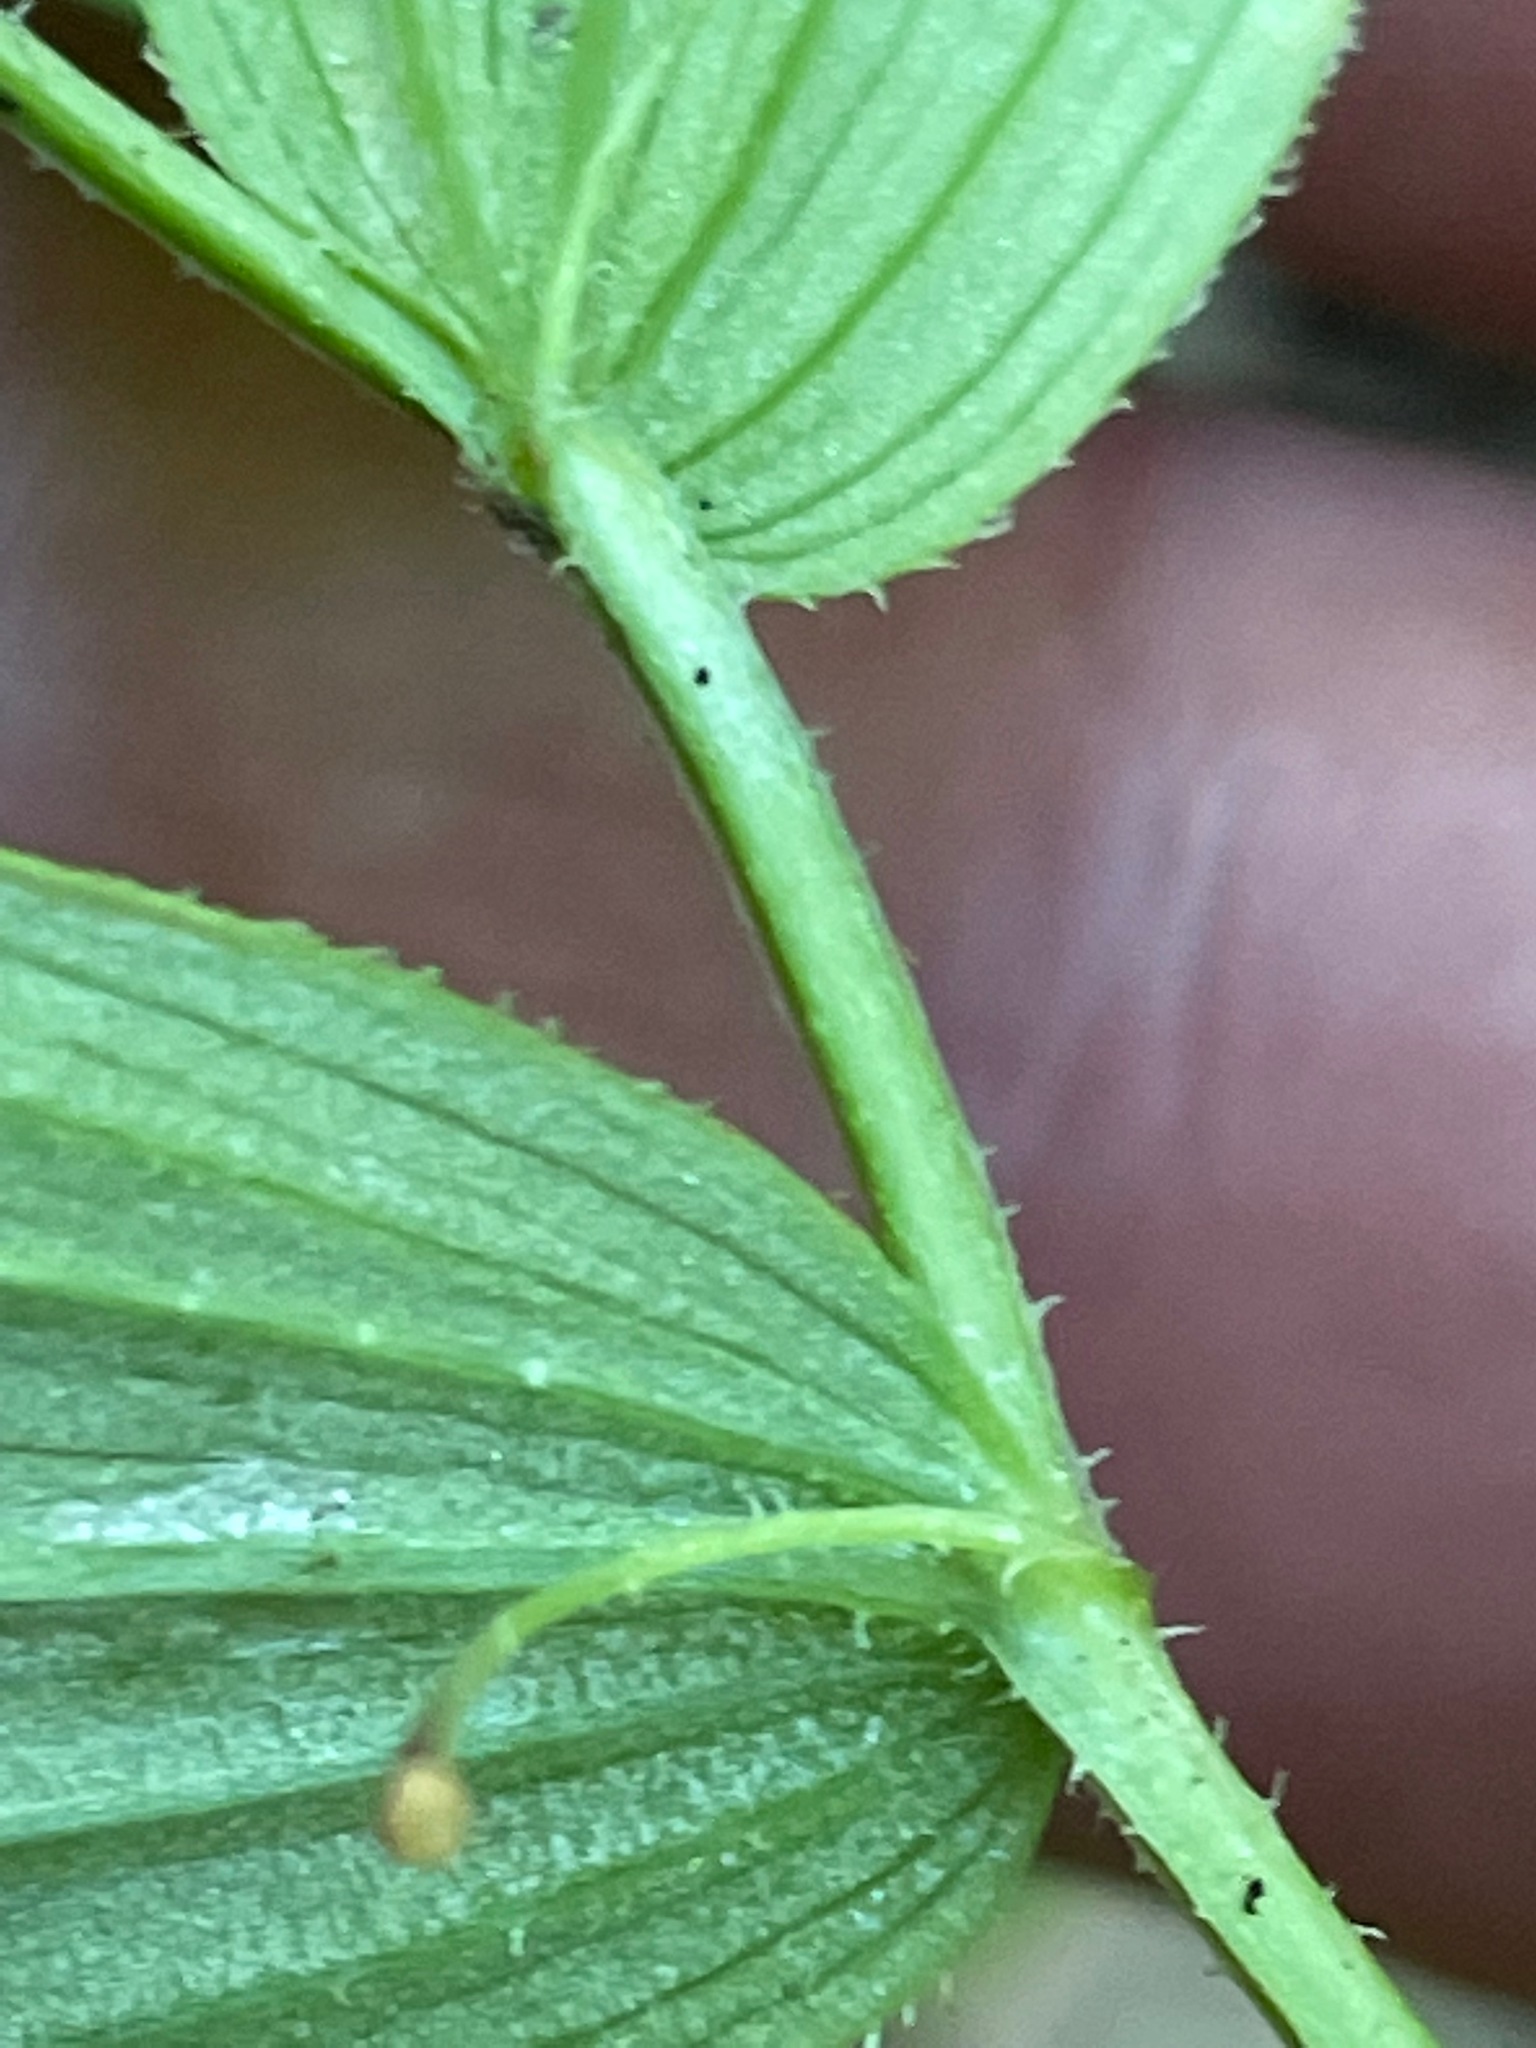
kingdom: Plantae
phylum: Tracheophyta
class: Liliopsida
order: Liliales
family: Liliaceae
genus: Streptopus
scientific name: Streptopus lanceolatus
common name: Rose mandarin
